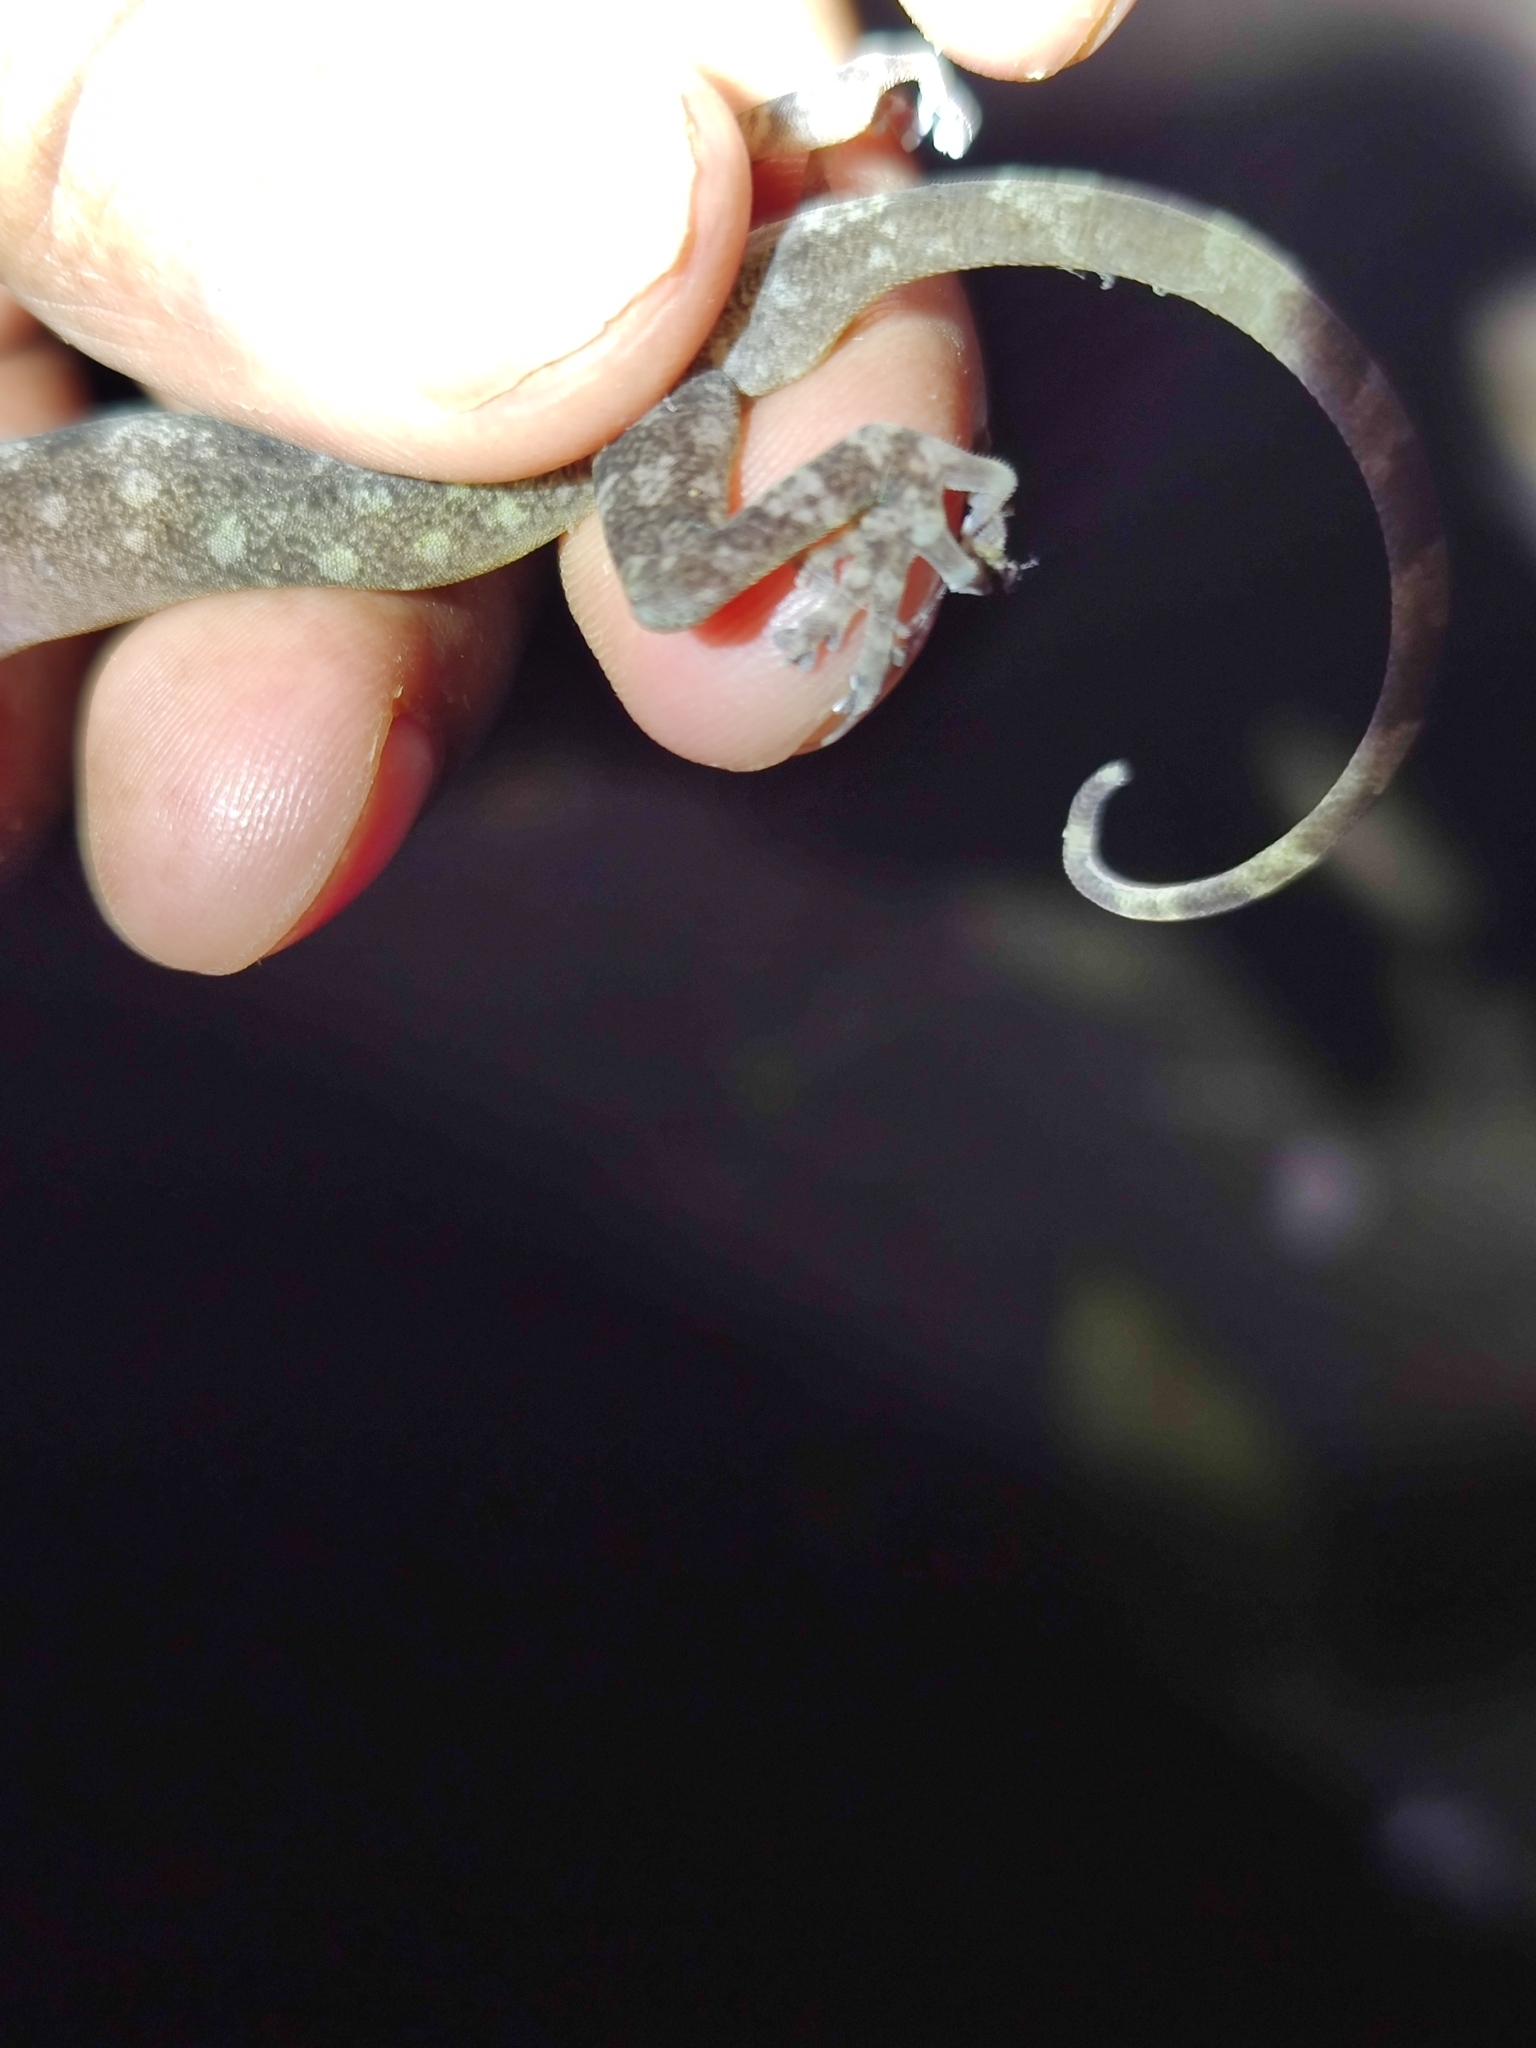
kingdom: Animalia
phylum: Chordata
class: Squamata
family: Gekkonidae
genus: Calodactylodes
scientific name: Calodactylodes aureus
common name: Indian golden gecko
